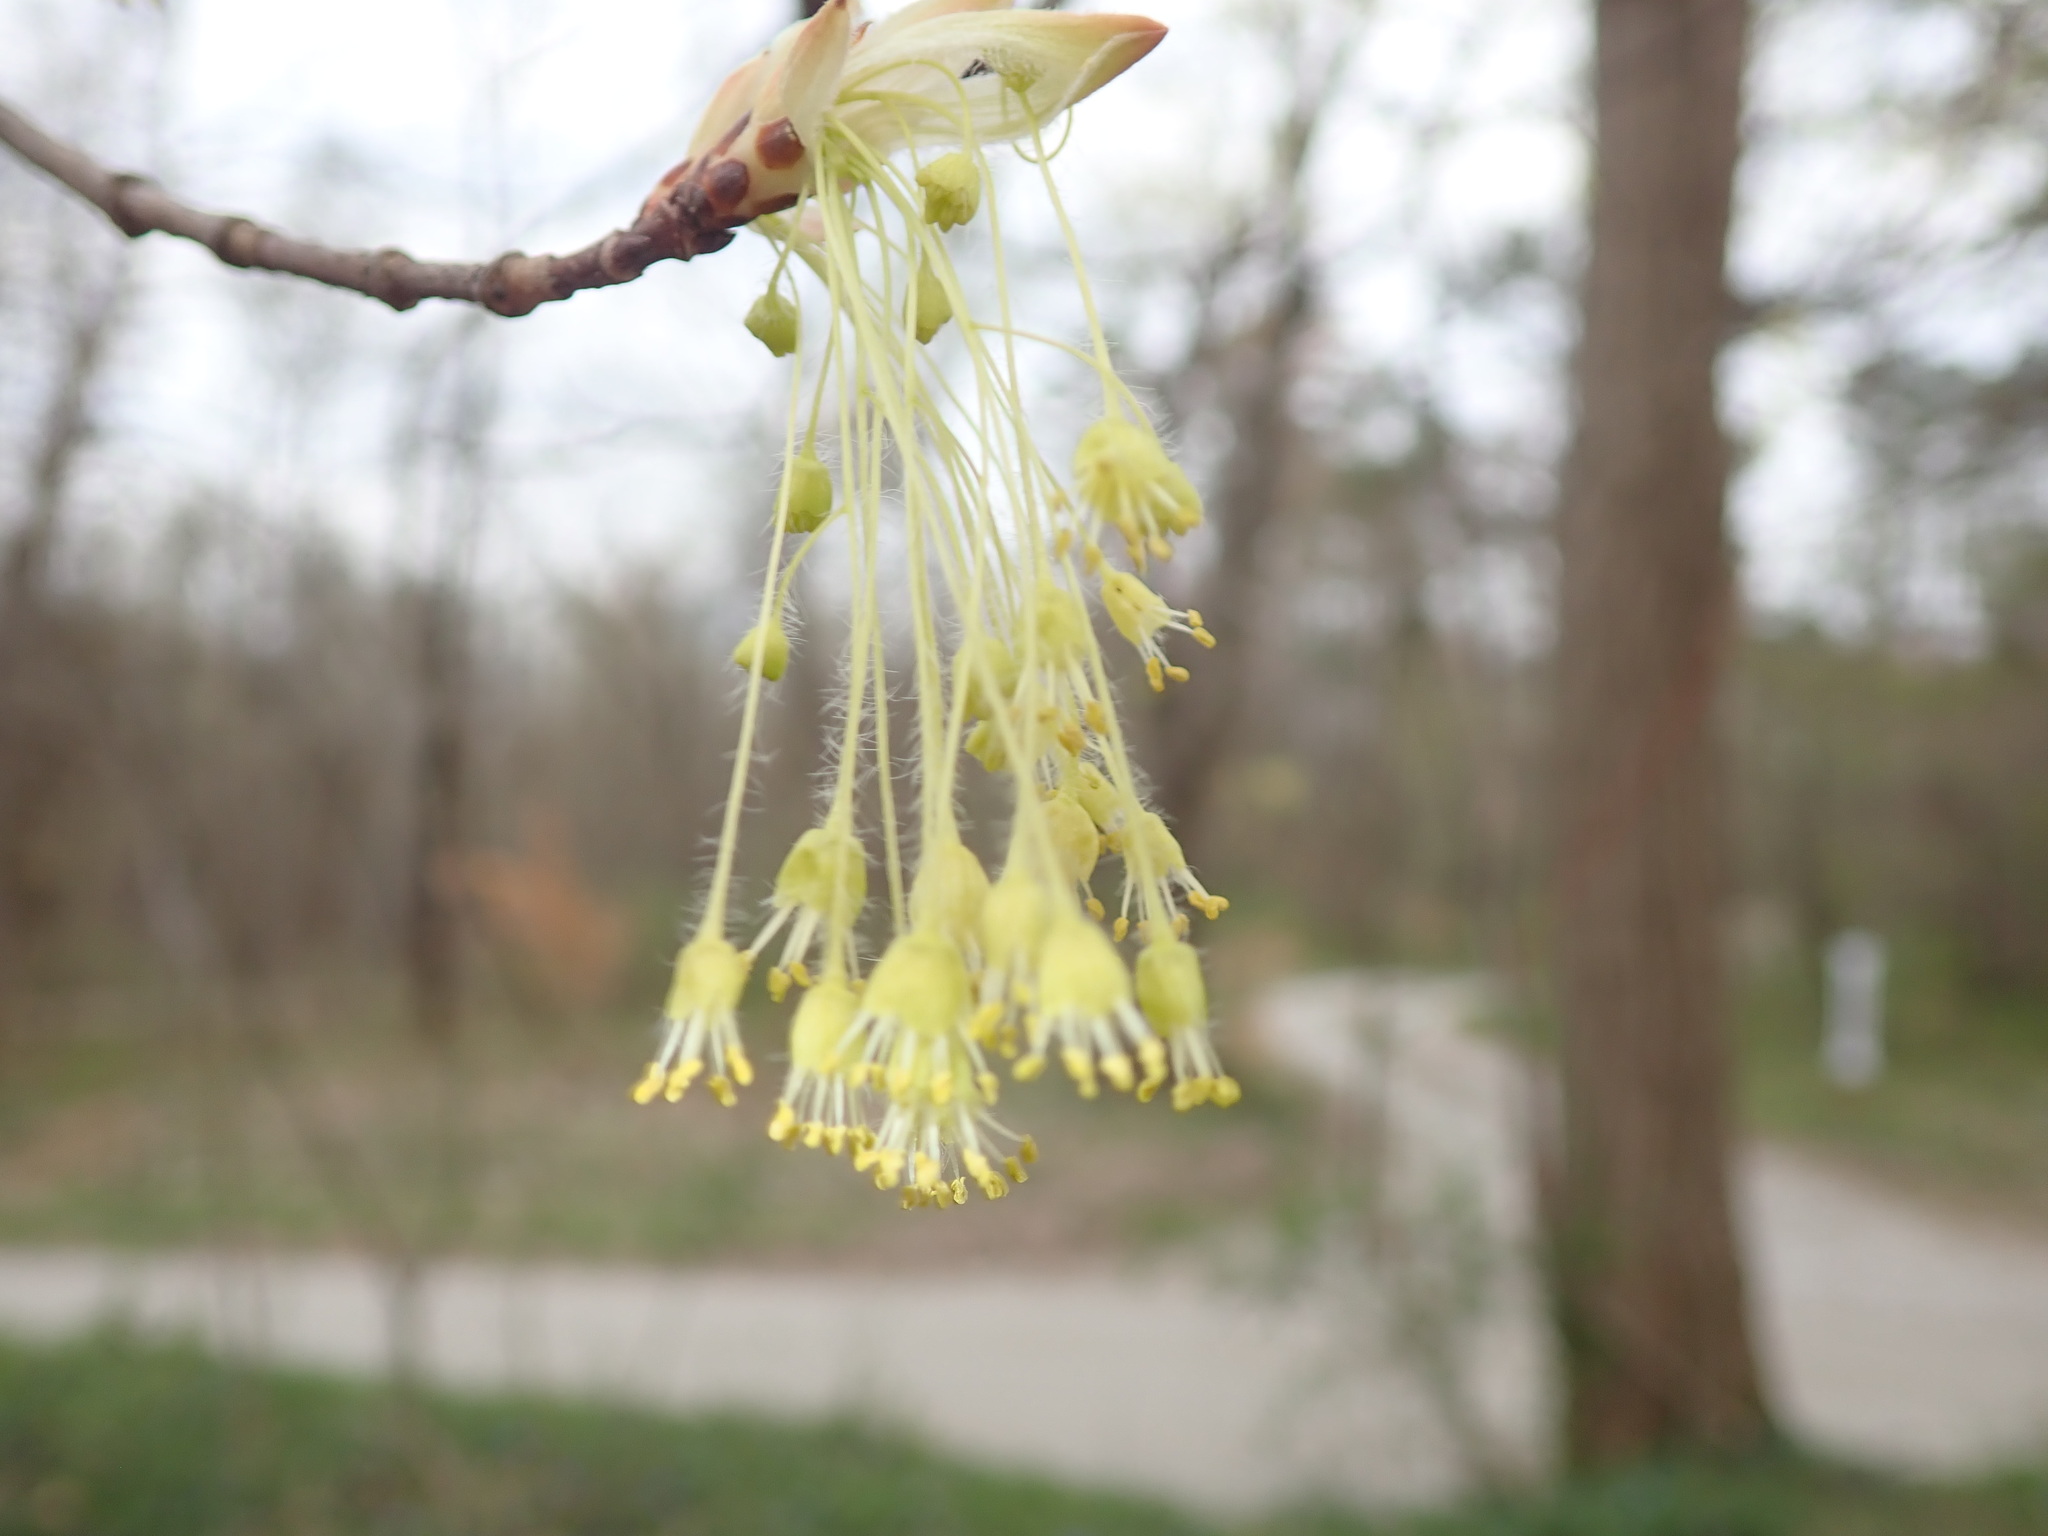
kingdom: Animalia
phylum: Arthropoda
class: Insecta
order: Hymenoptera
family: Apidae
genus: Xylocopa
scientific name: Xylocopa virginica
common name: Carpenter bee
